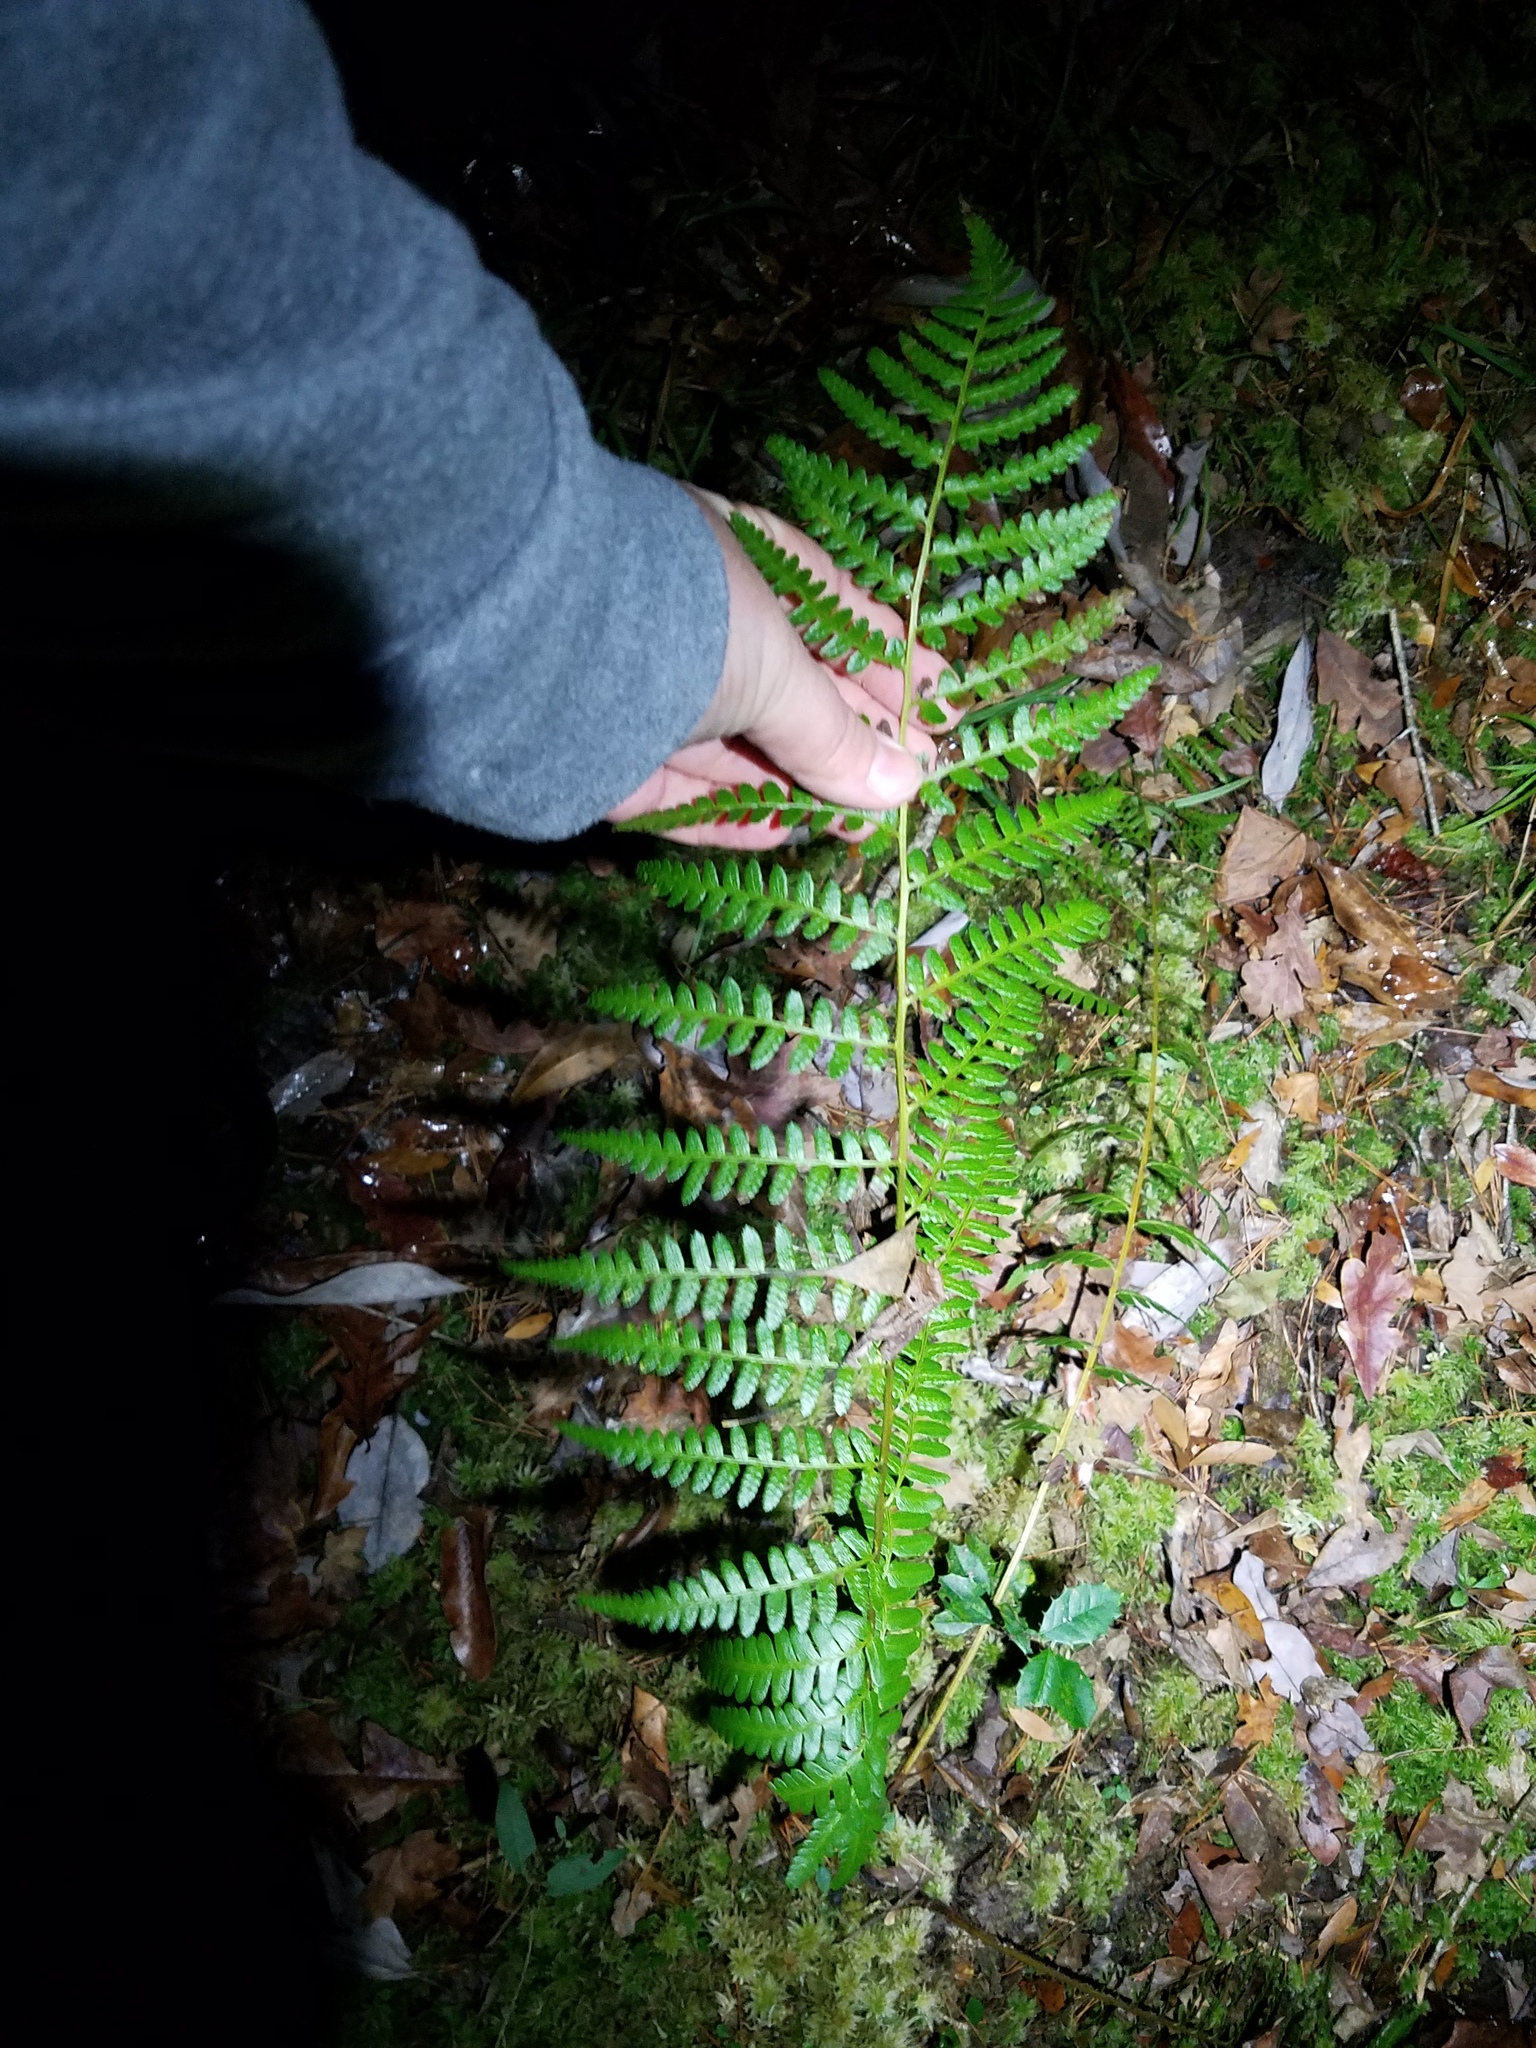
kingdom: Plantae
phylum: Tracheophyta
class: Polypodiopsida
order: Polypodiales
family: Dryopteridaceae
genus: Dryopteris
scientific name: Dryopteris ludoviciana
